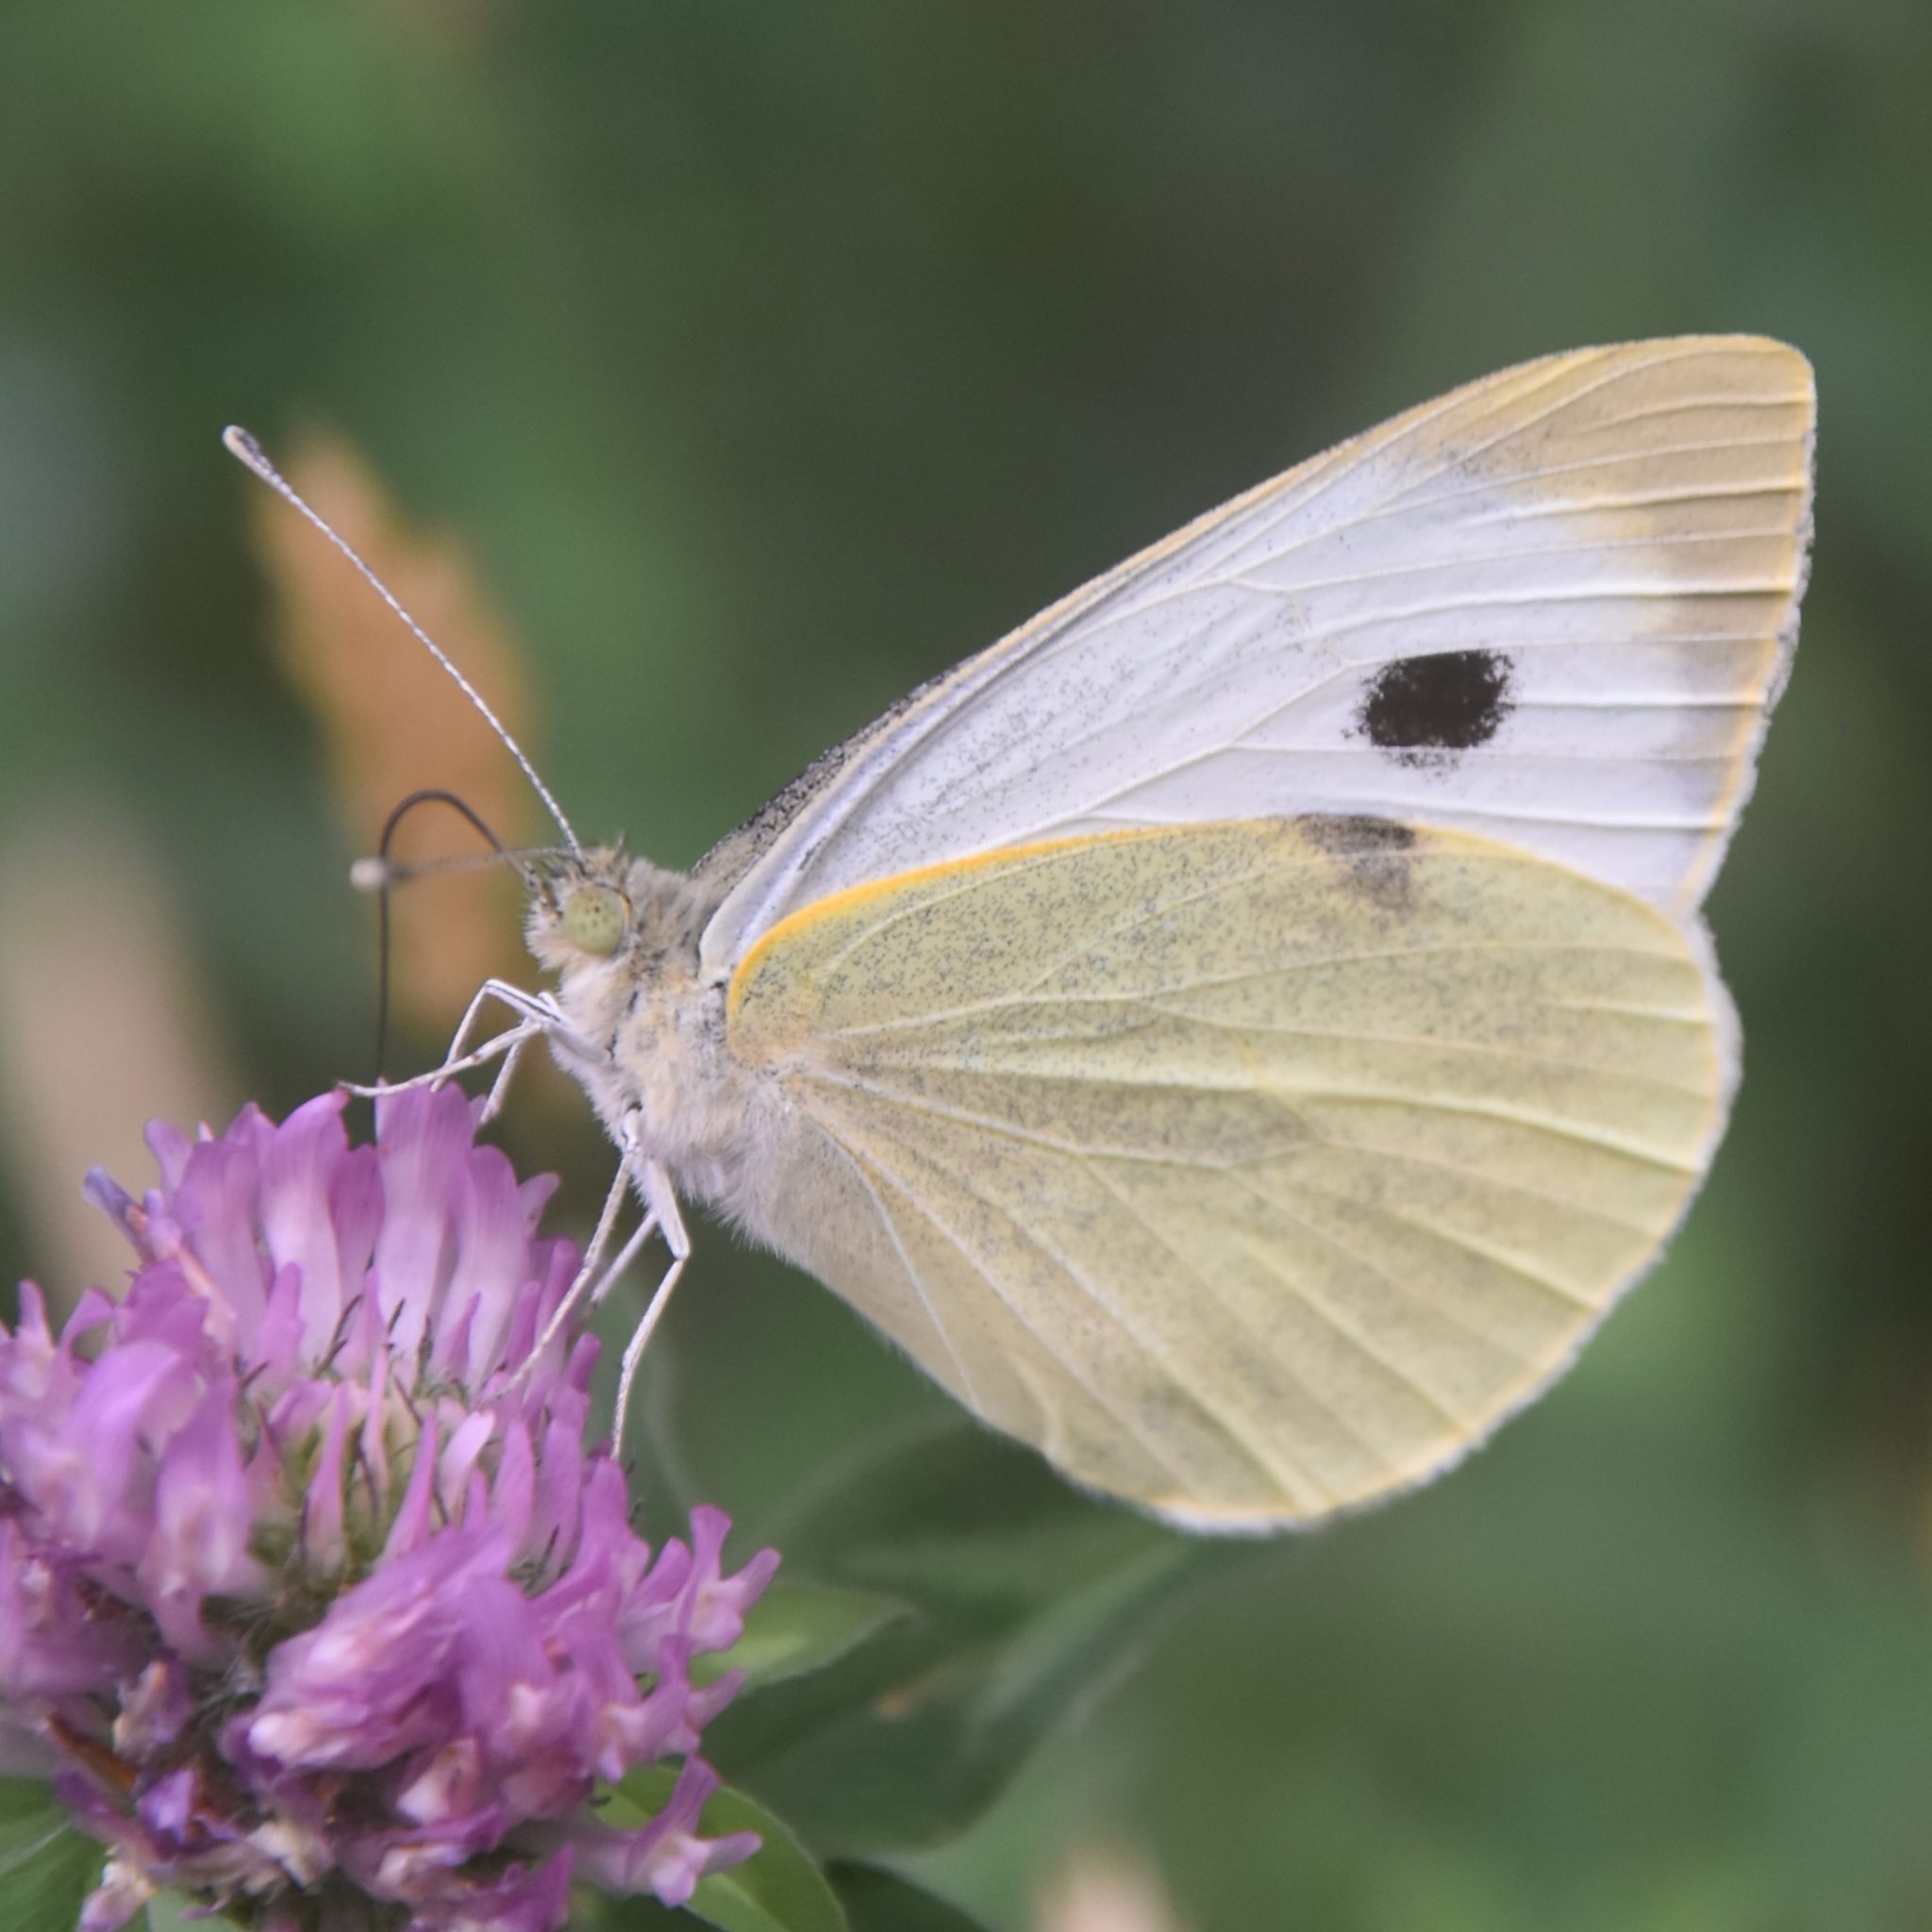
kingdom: Animalia
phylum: Arthropoda
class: Insecta
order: Lepidoptera
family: Pieridae
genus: Pieris
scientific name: Pieris brassicae
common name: Large white
